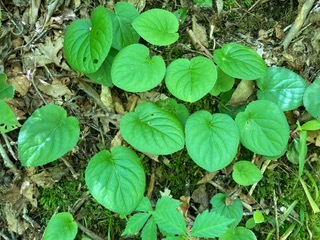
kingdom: Plantae
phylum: Tracheophyta
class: Magnoliopsida
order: Malpighiales
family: Violaceae
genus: Viola
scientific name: Viola rotundifolia
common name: Early yellow violet
